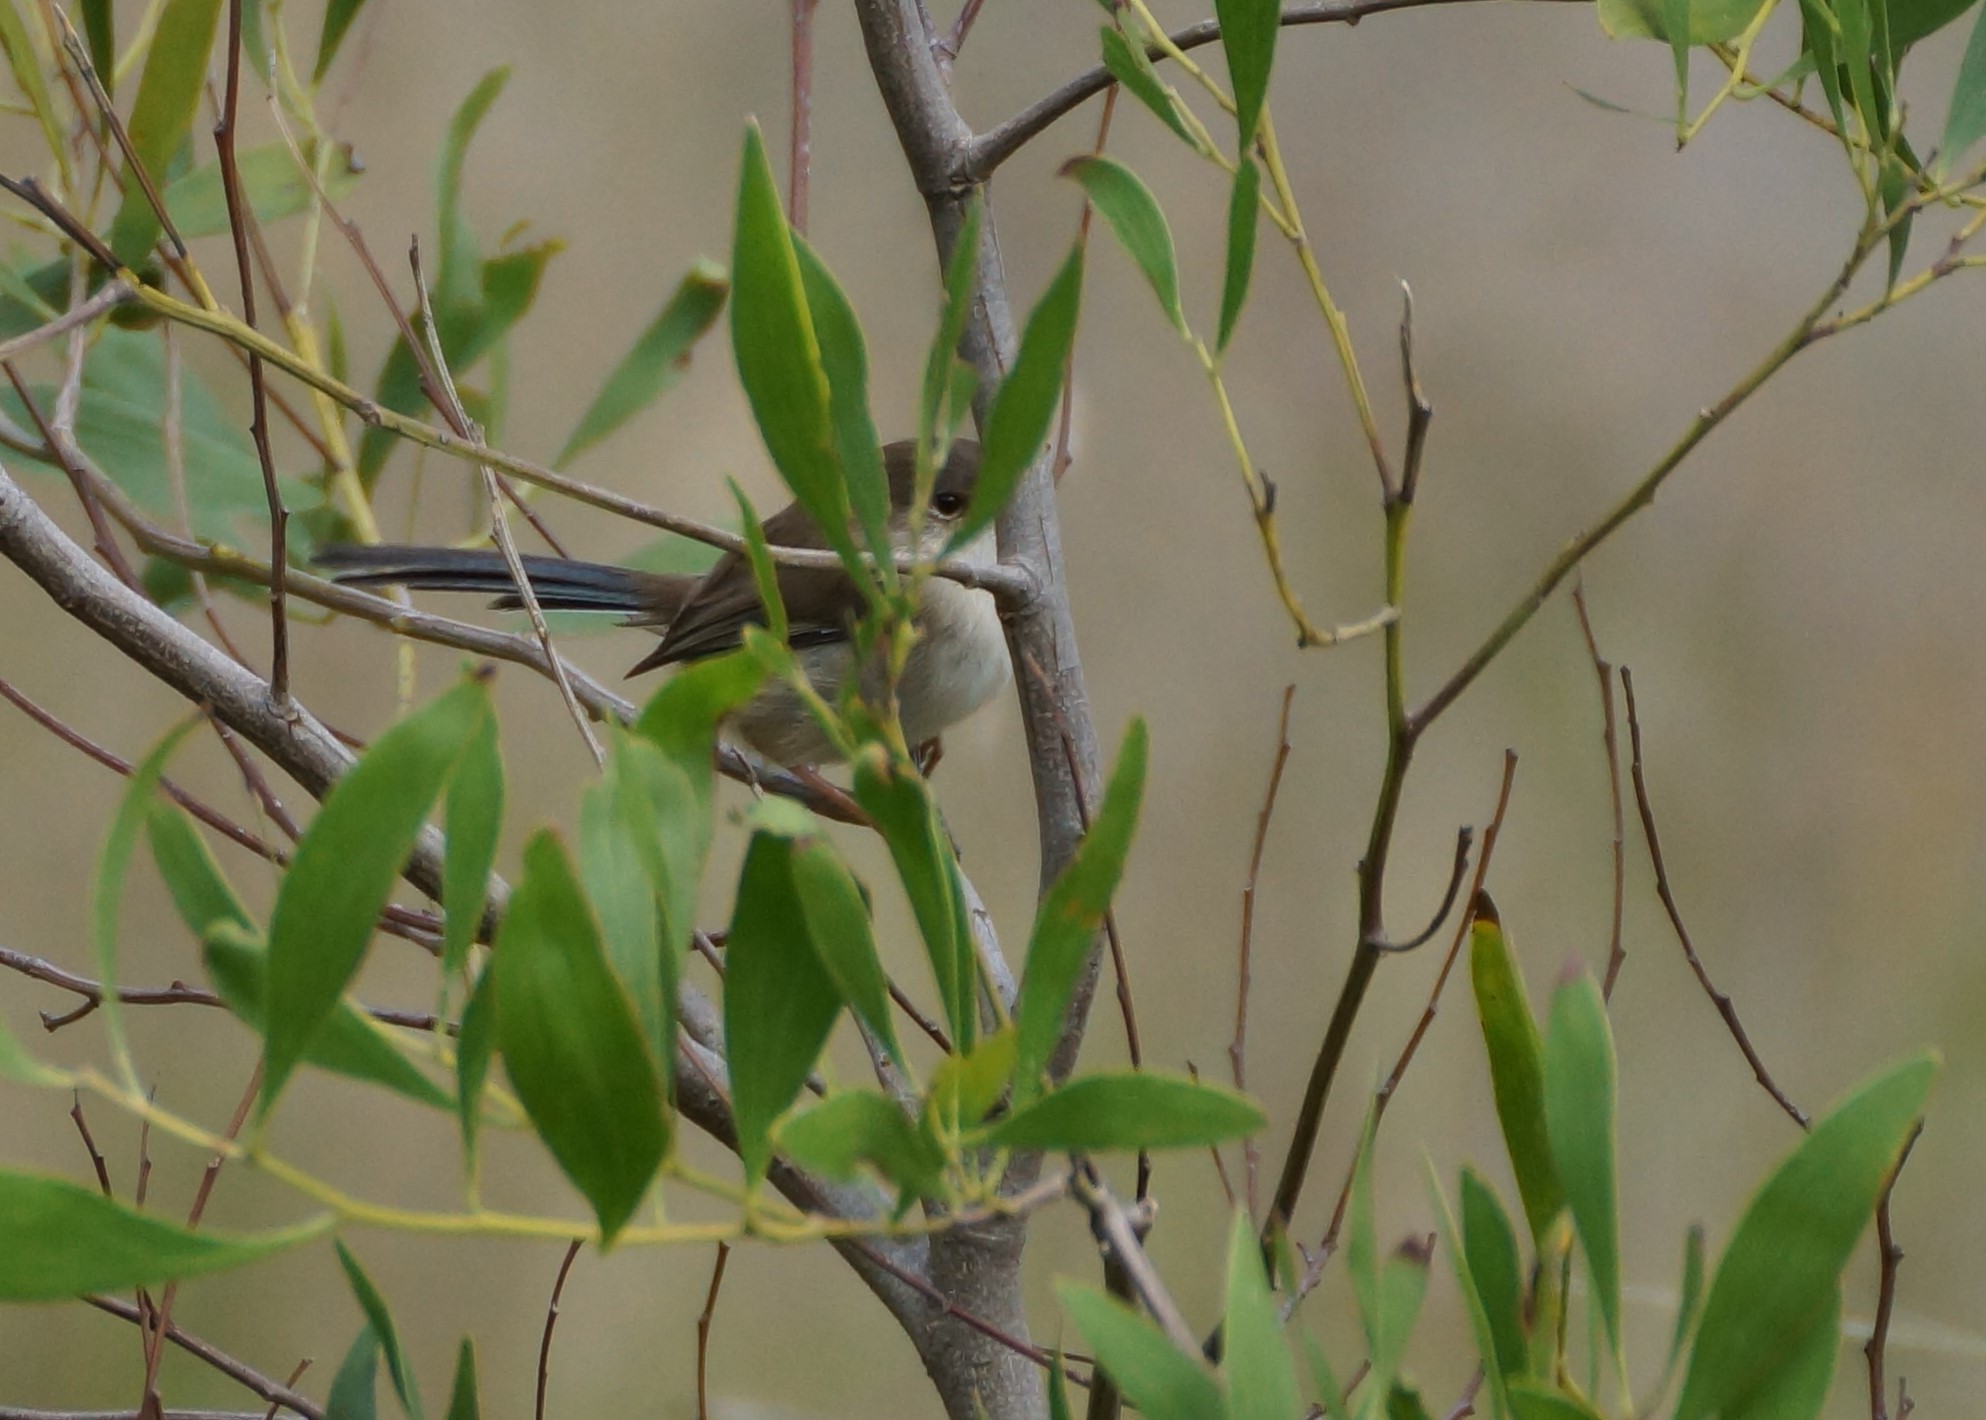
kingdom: Animalia
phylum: Chordata
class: Aves
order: Passeriformes
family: Maluridae
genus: Malurus
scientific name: Malurus cyaneus
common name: Superb fairywren
